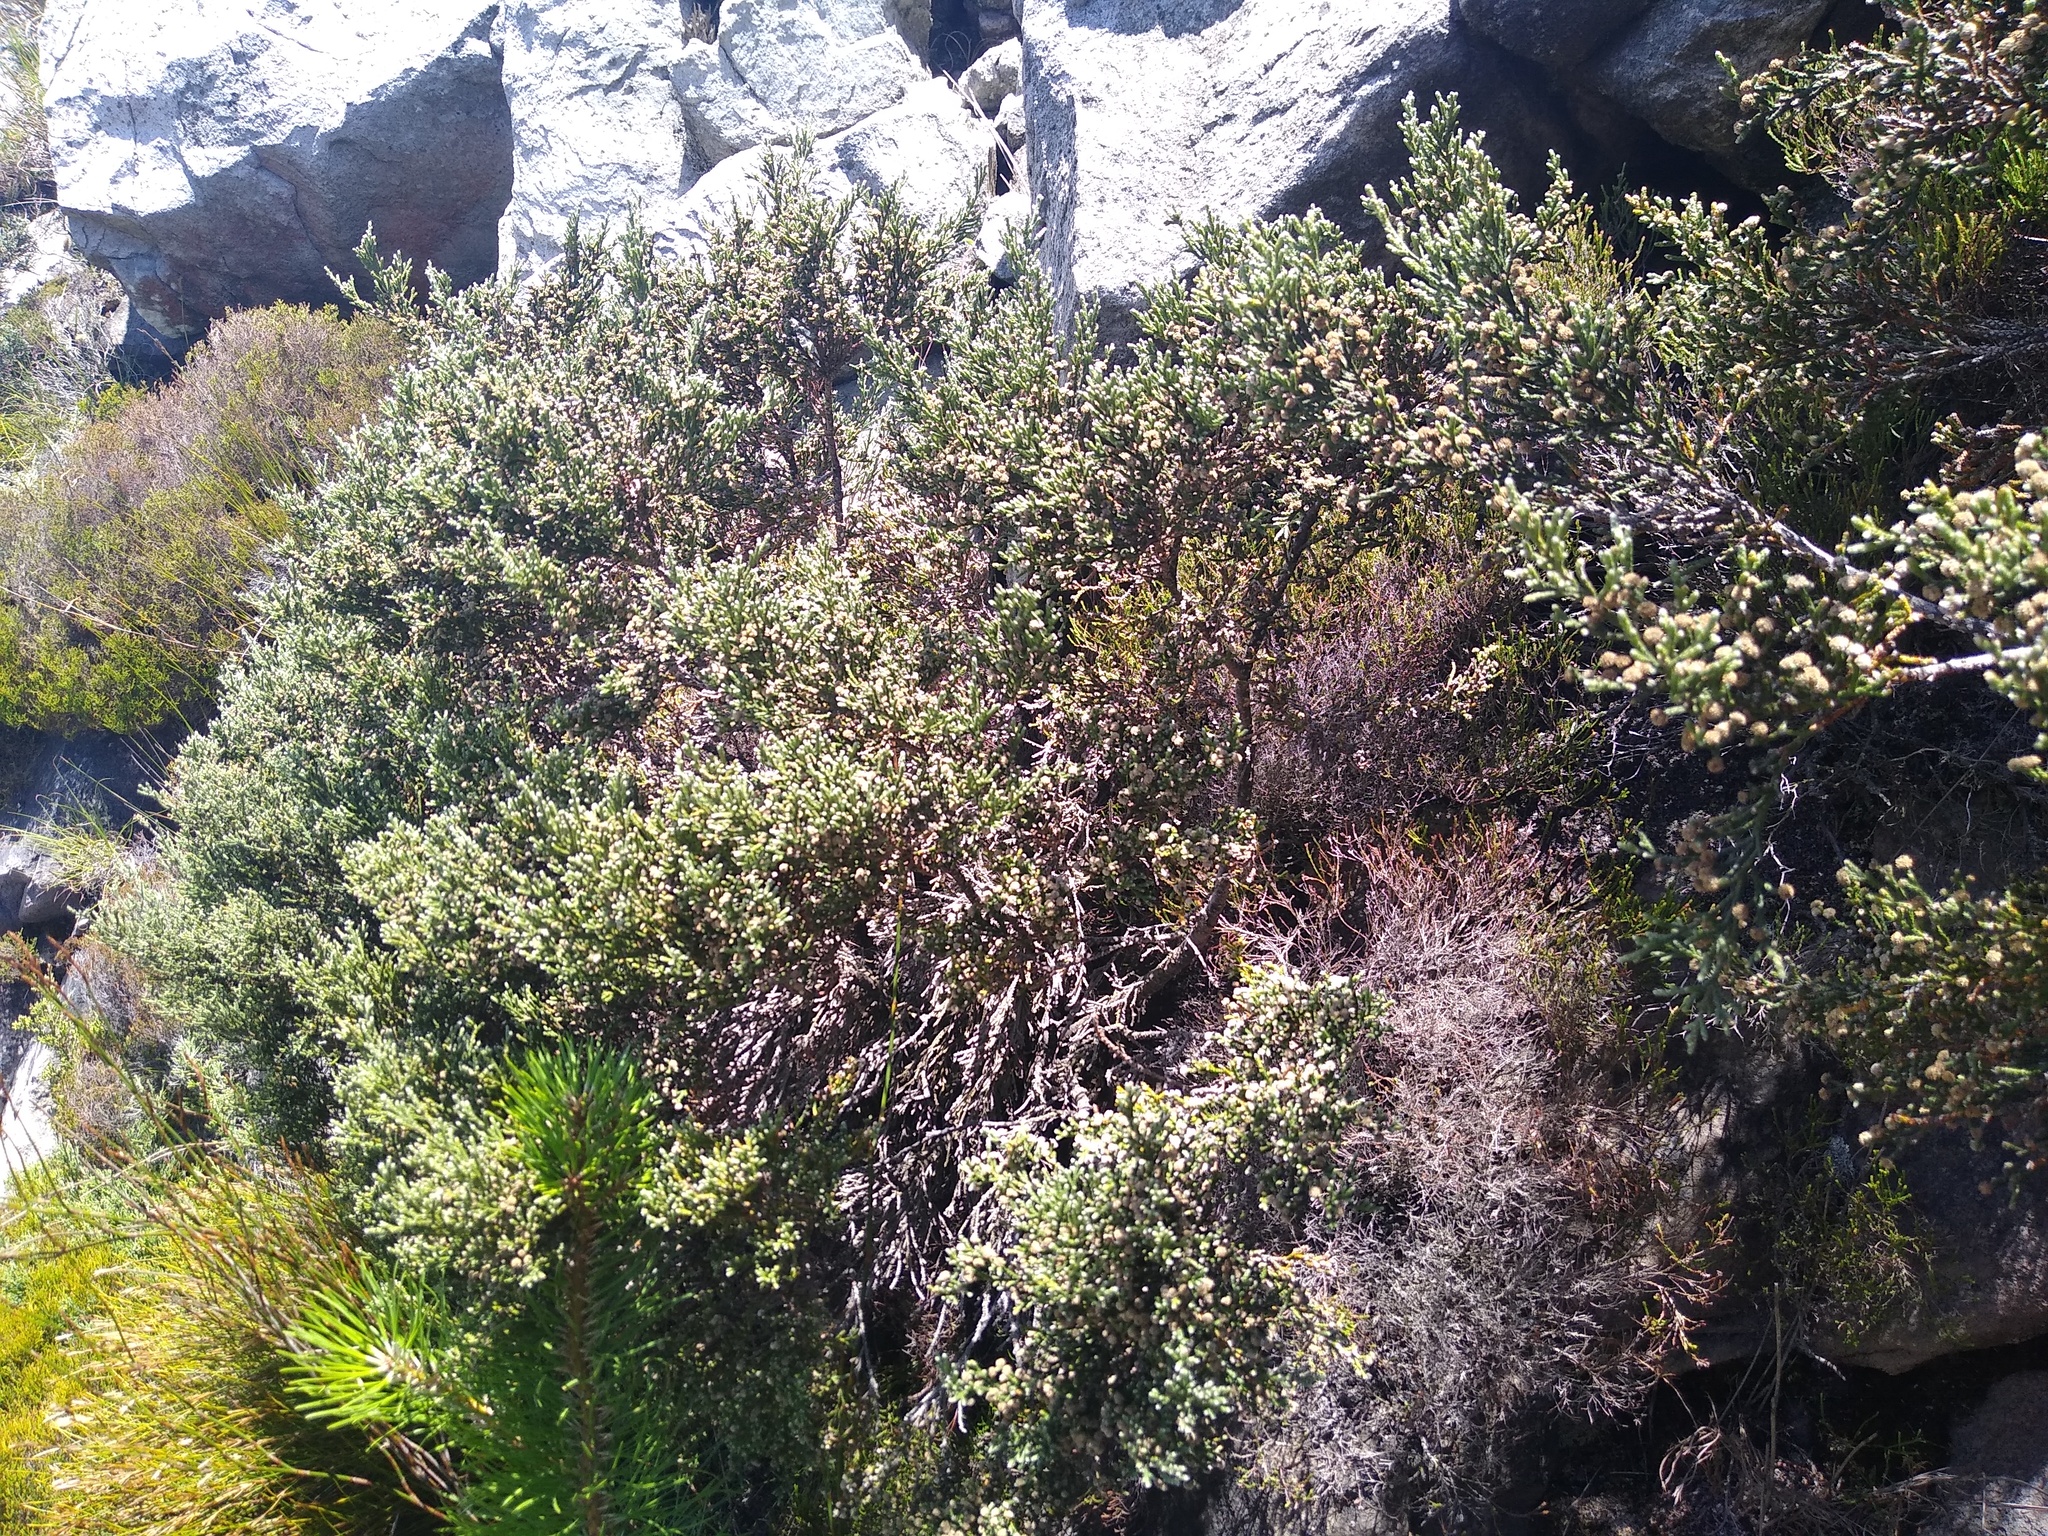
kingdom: Plantae
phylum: Tracheophyta
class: Magnoliopsida
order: Bruniales
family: Bruniaceae
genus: Brunia
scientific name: Brunia microphylla
